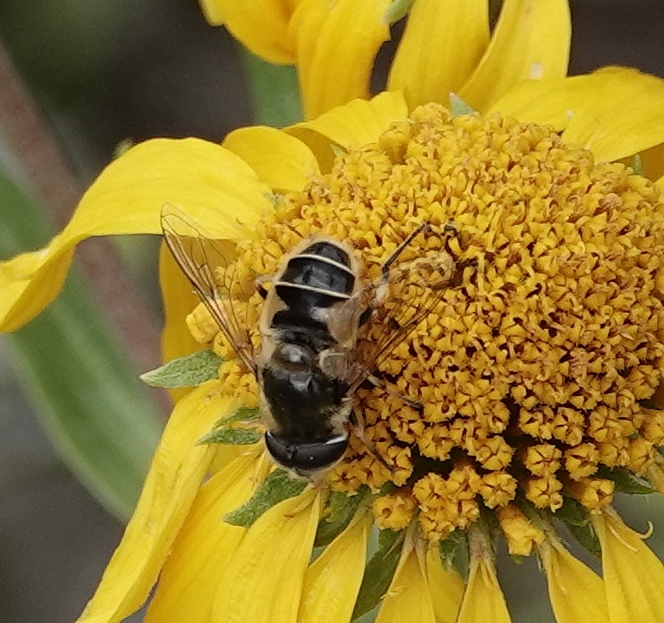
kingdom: Animalia
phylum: Arthropoda
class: Insecta
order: Diptera
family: Syrphidae
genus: Eristalis
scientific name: Eristalis hirta
